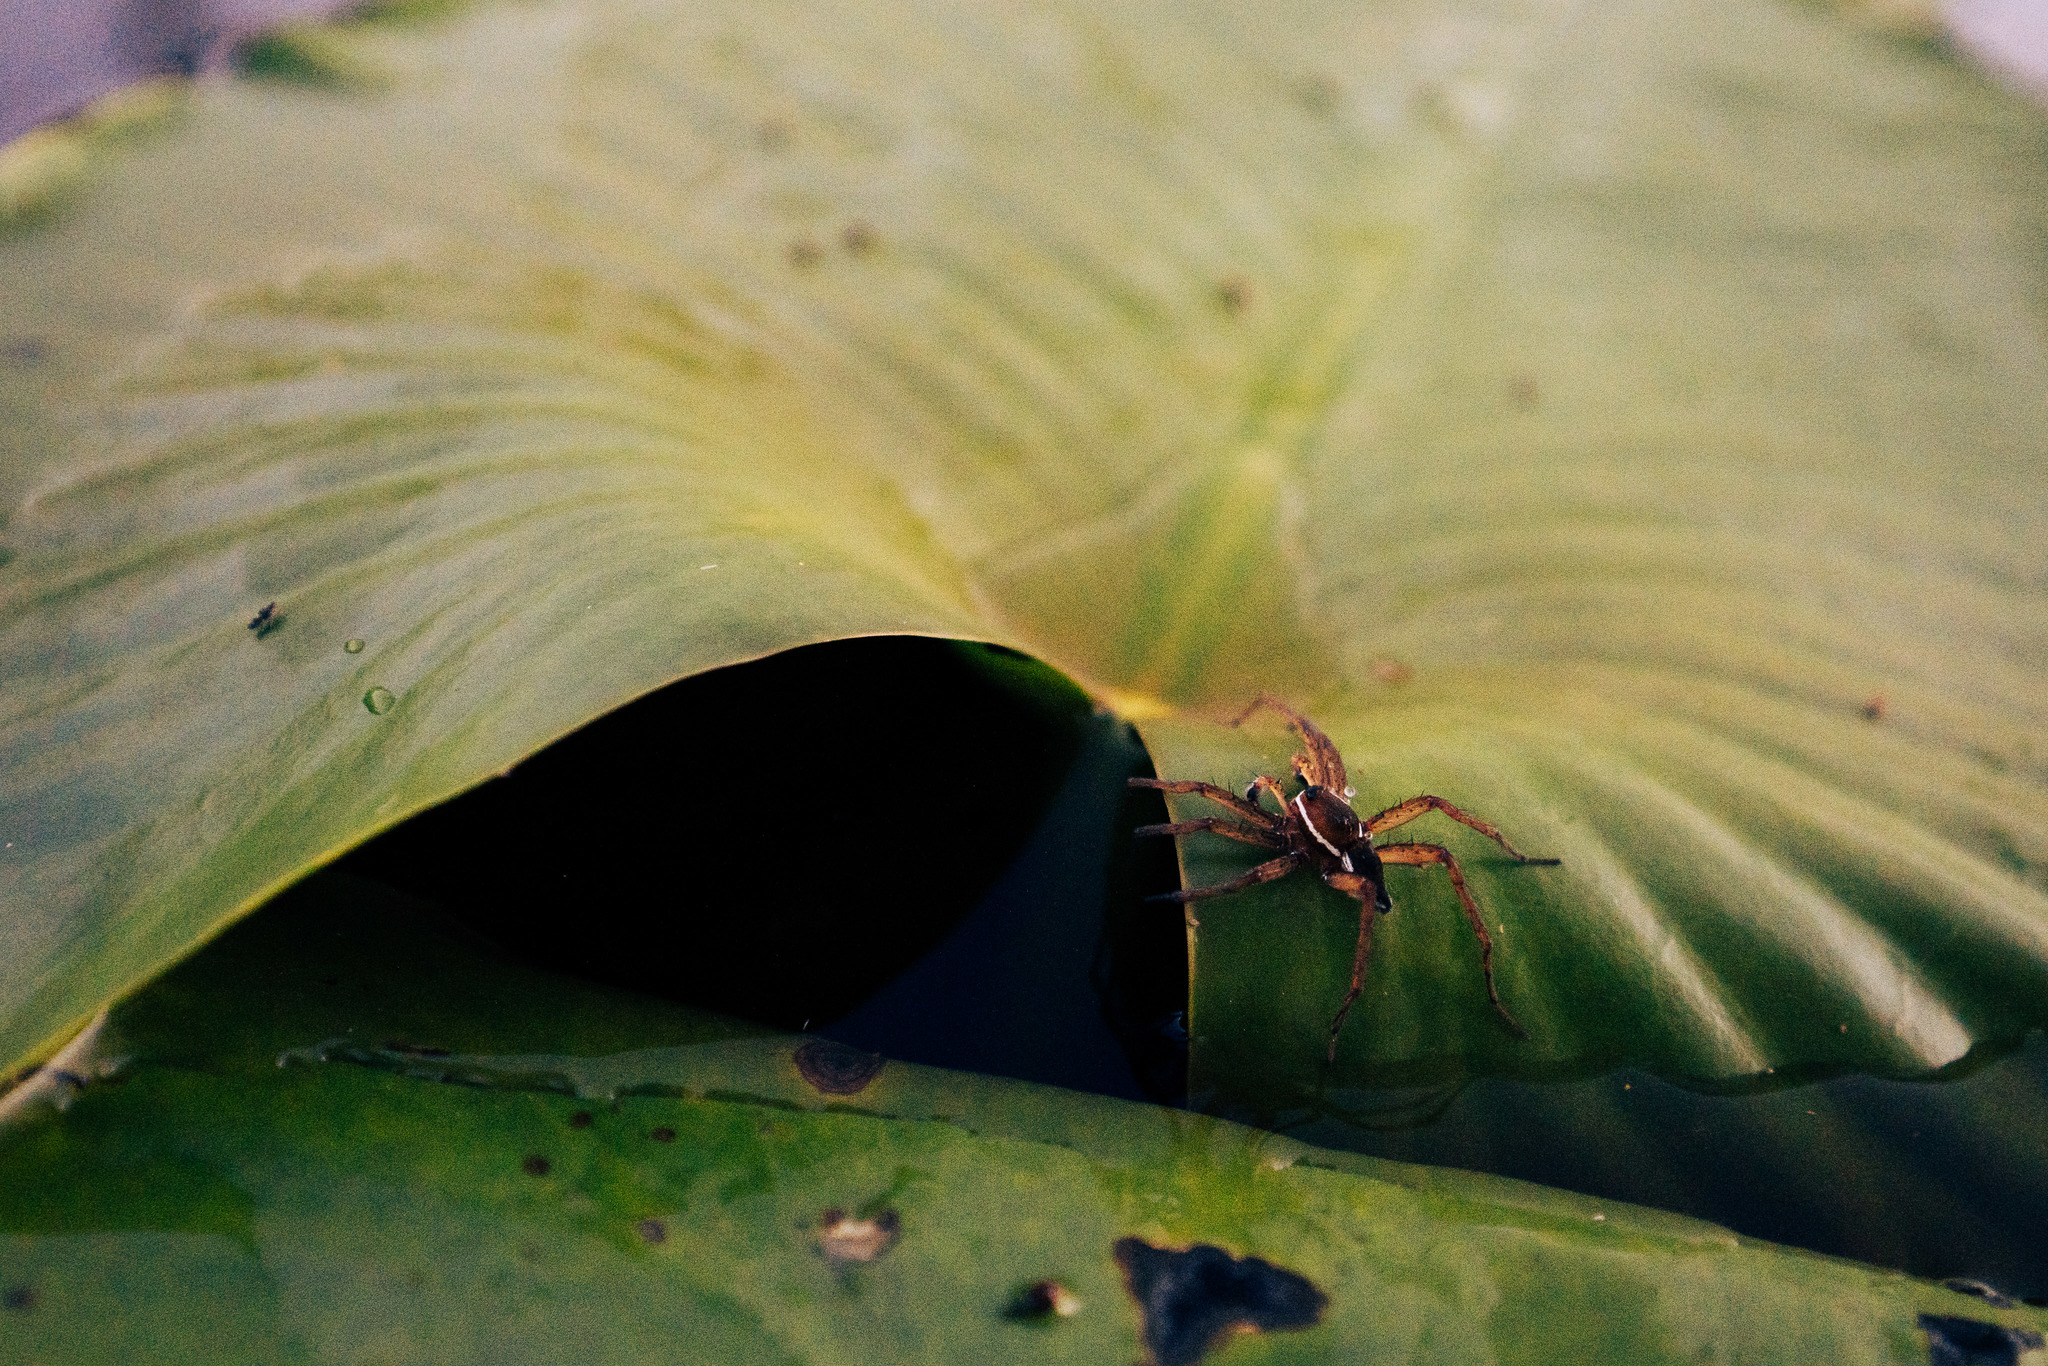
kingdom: Animalia
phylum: Arthropoda
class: Arachnida
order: Araneae
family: Pisauridae
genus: Dolomedes
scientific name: Dolomedes triton
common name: Six-spotted fishing spider
